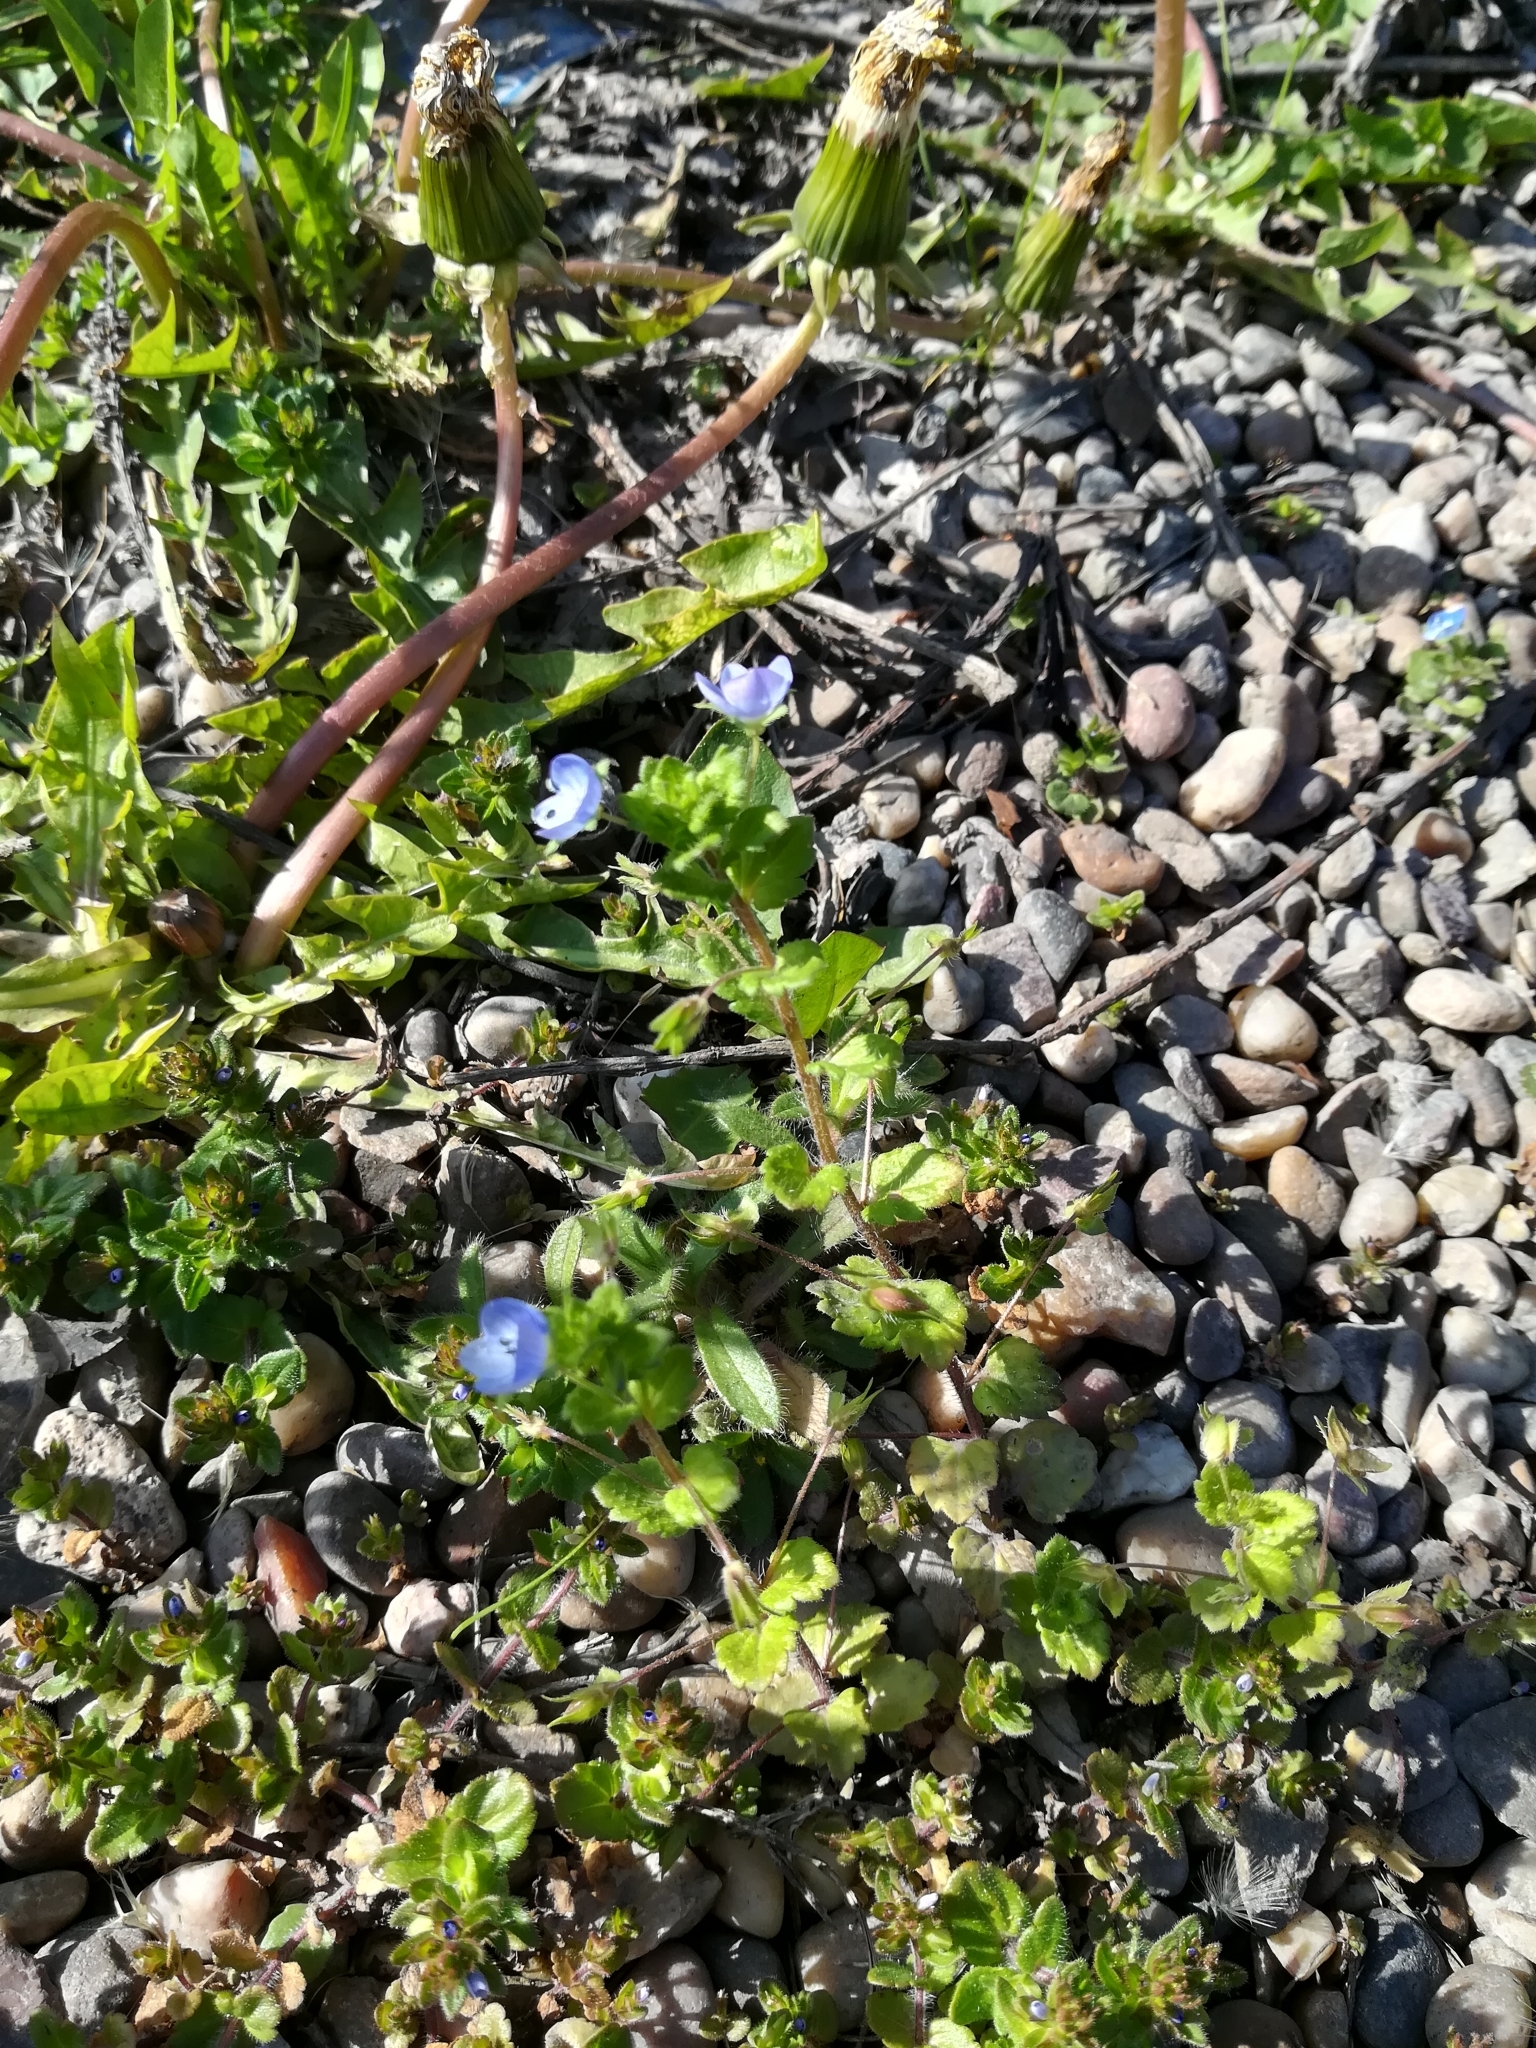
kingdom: Plantae
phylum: Tracheophyta
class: Magnoliopsida
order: Lamiales
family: Plantaginaceae
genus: Veronica
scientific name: Veronica persica
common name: Common field-speedwell
